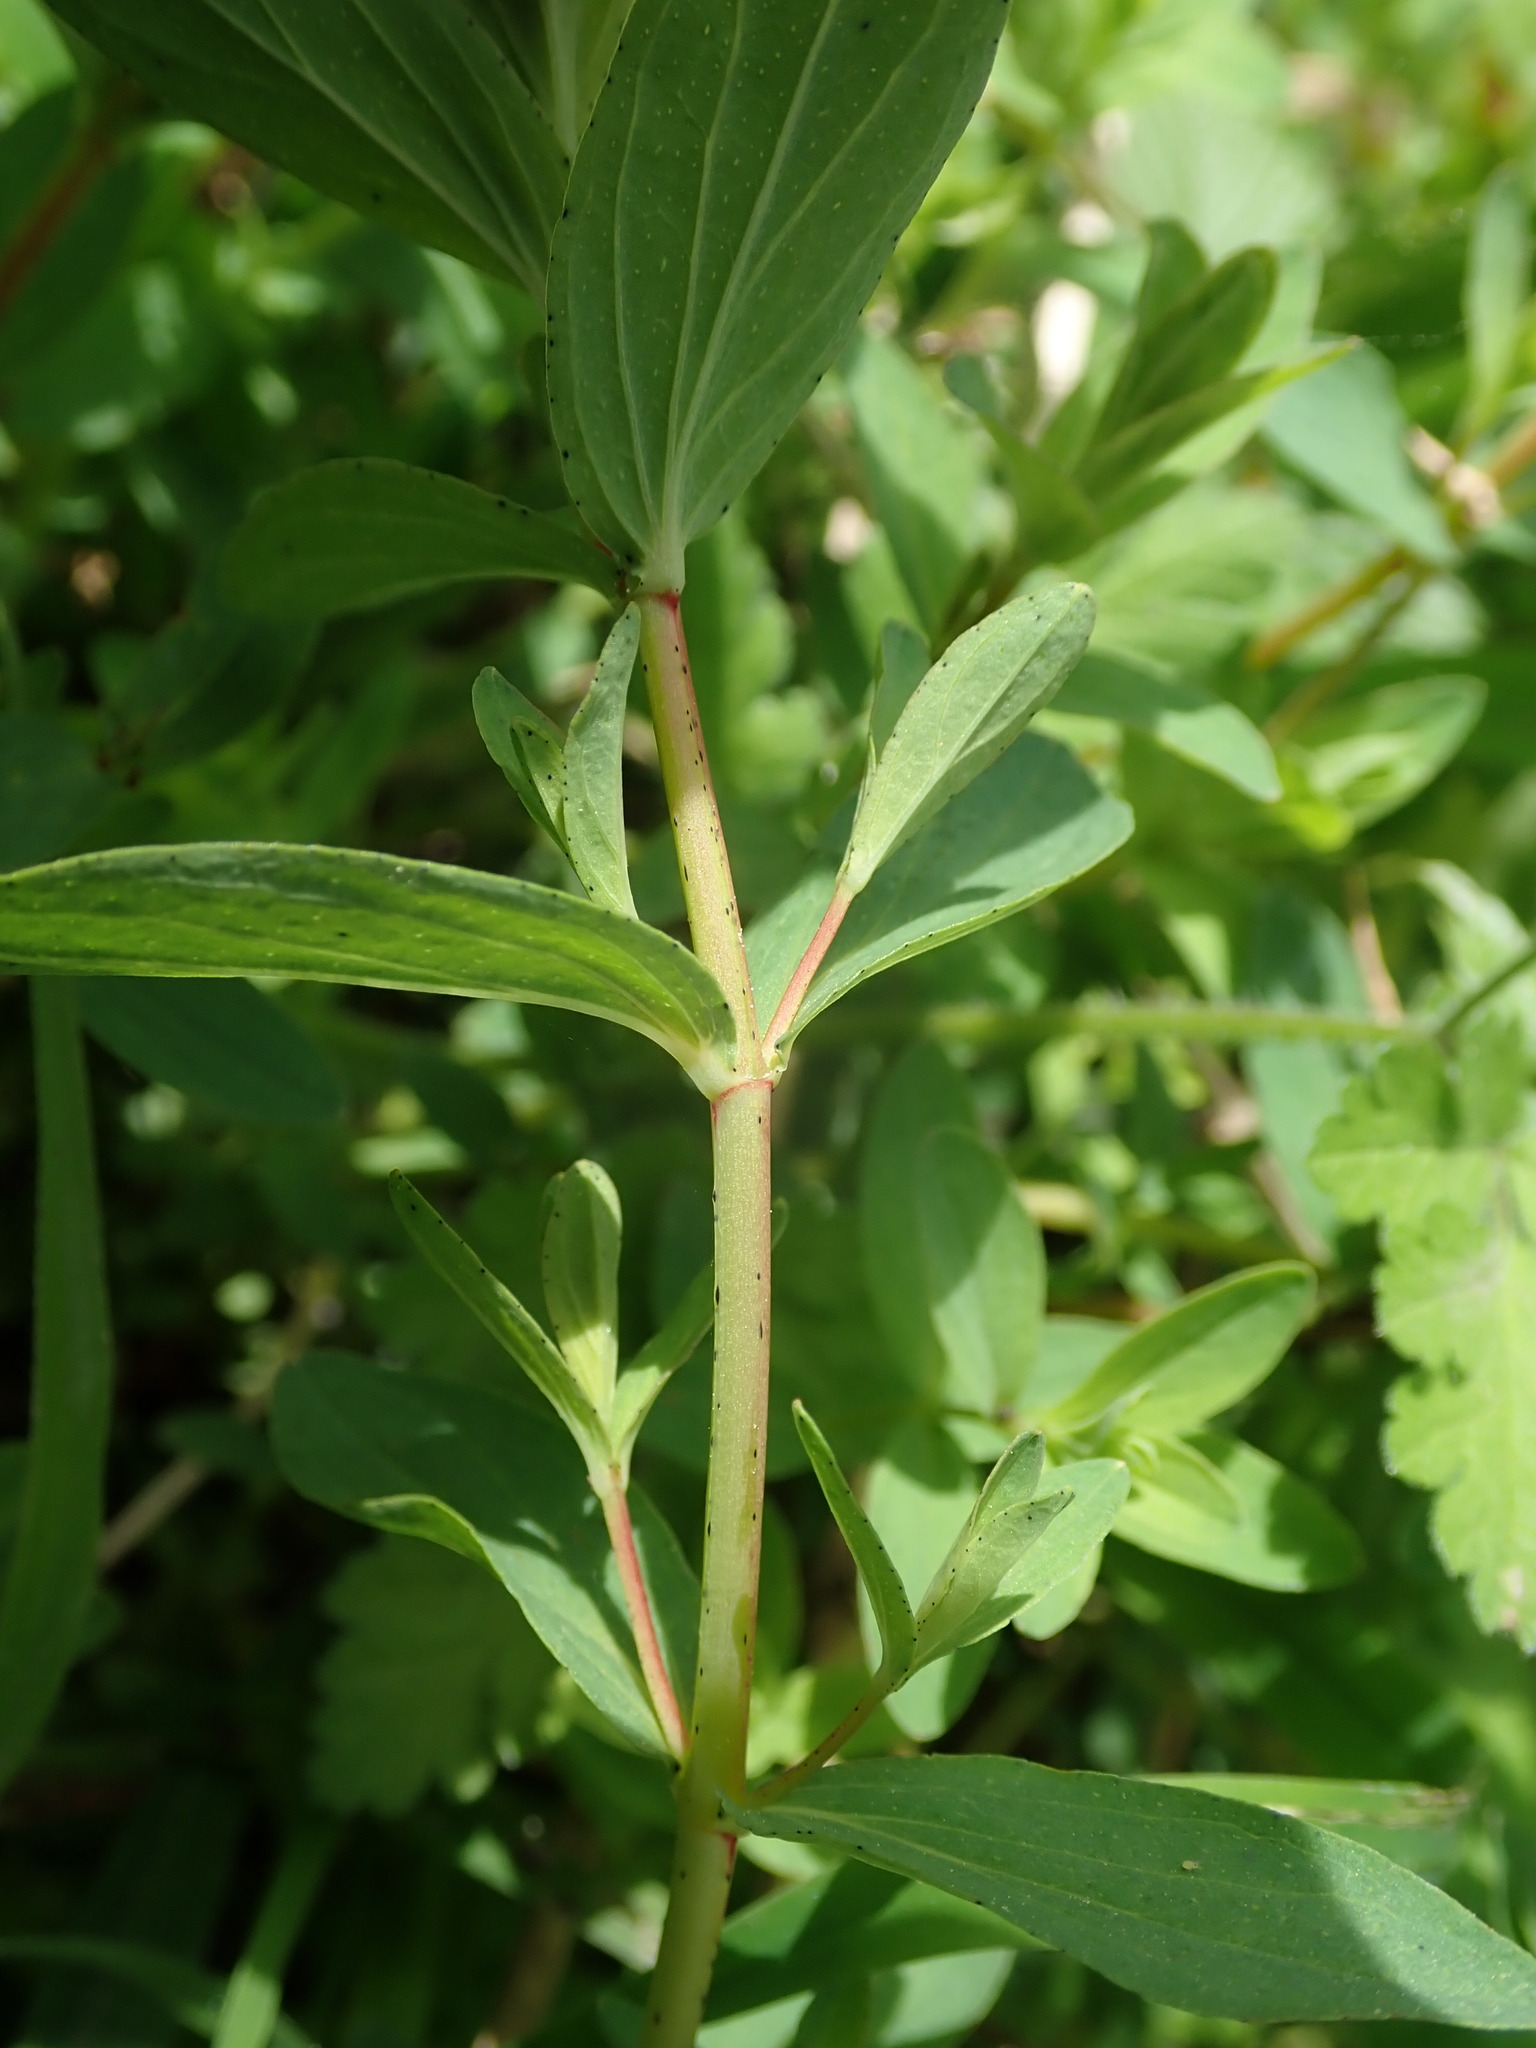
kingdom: Plantae
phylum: Tracheophyta
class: Magnoliopsida
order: Malpighiales
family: Hypericaceae
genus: Hypericum
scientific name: Hypericum perforatum
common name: Common st. johnswort
